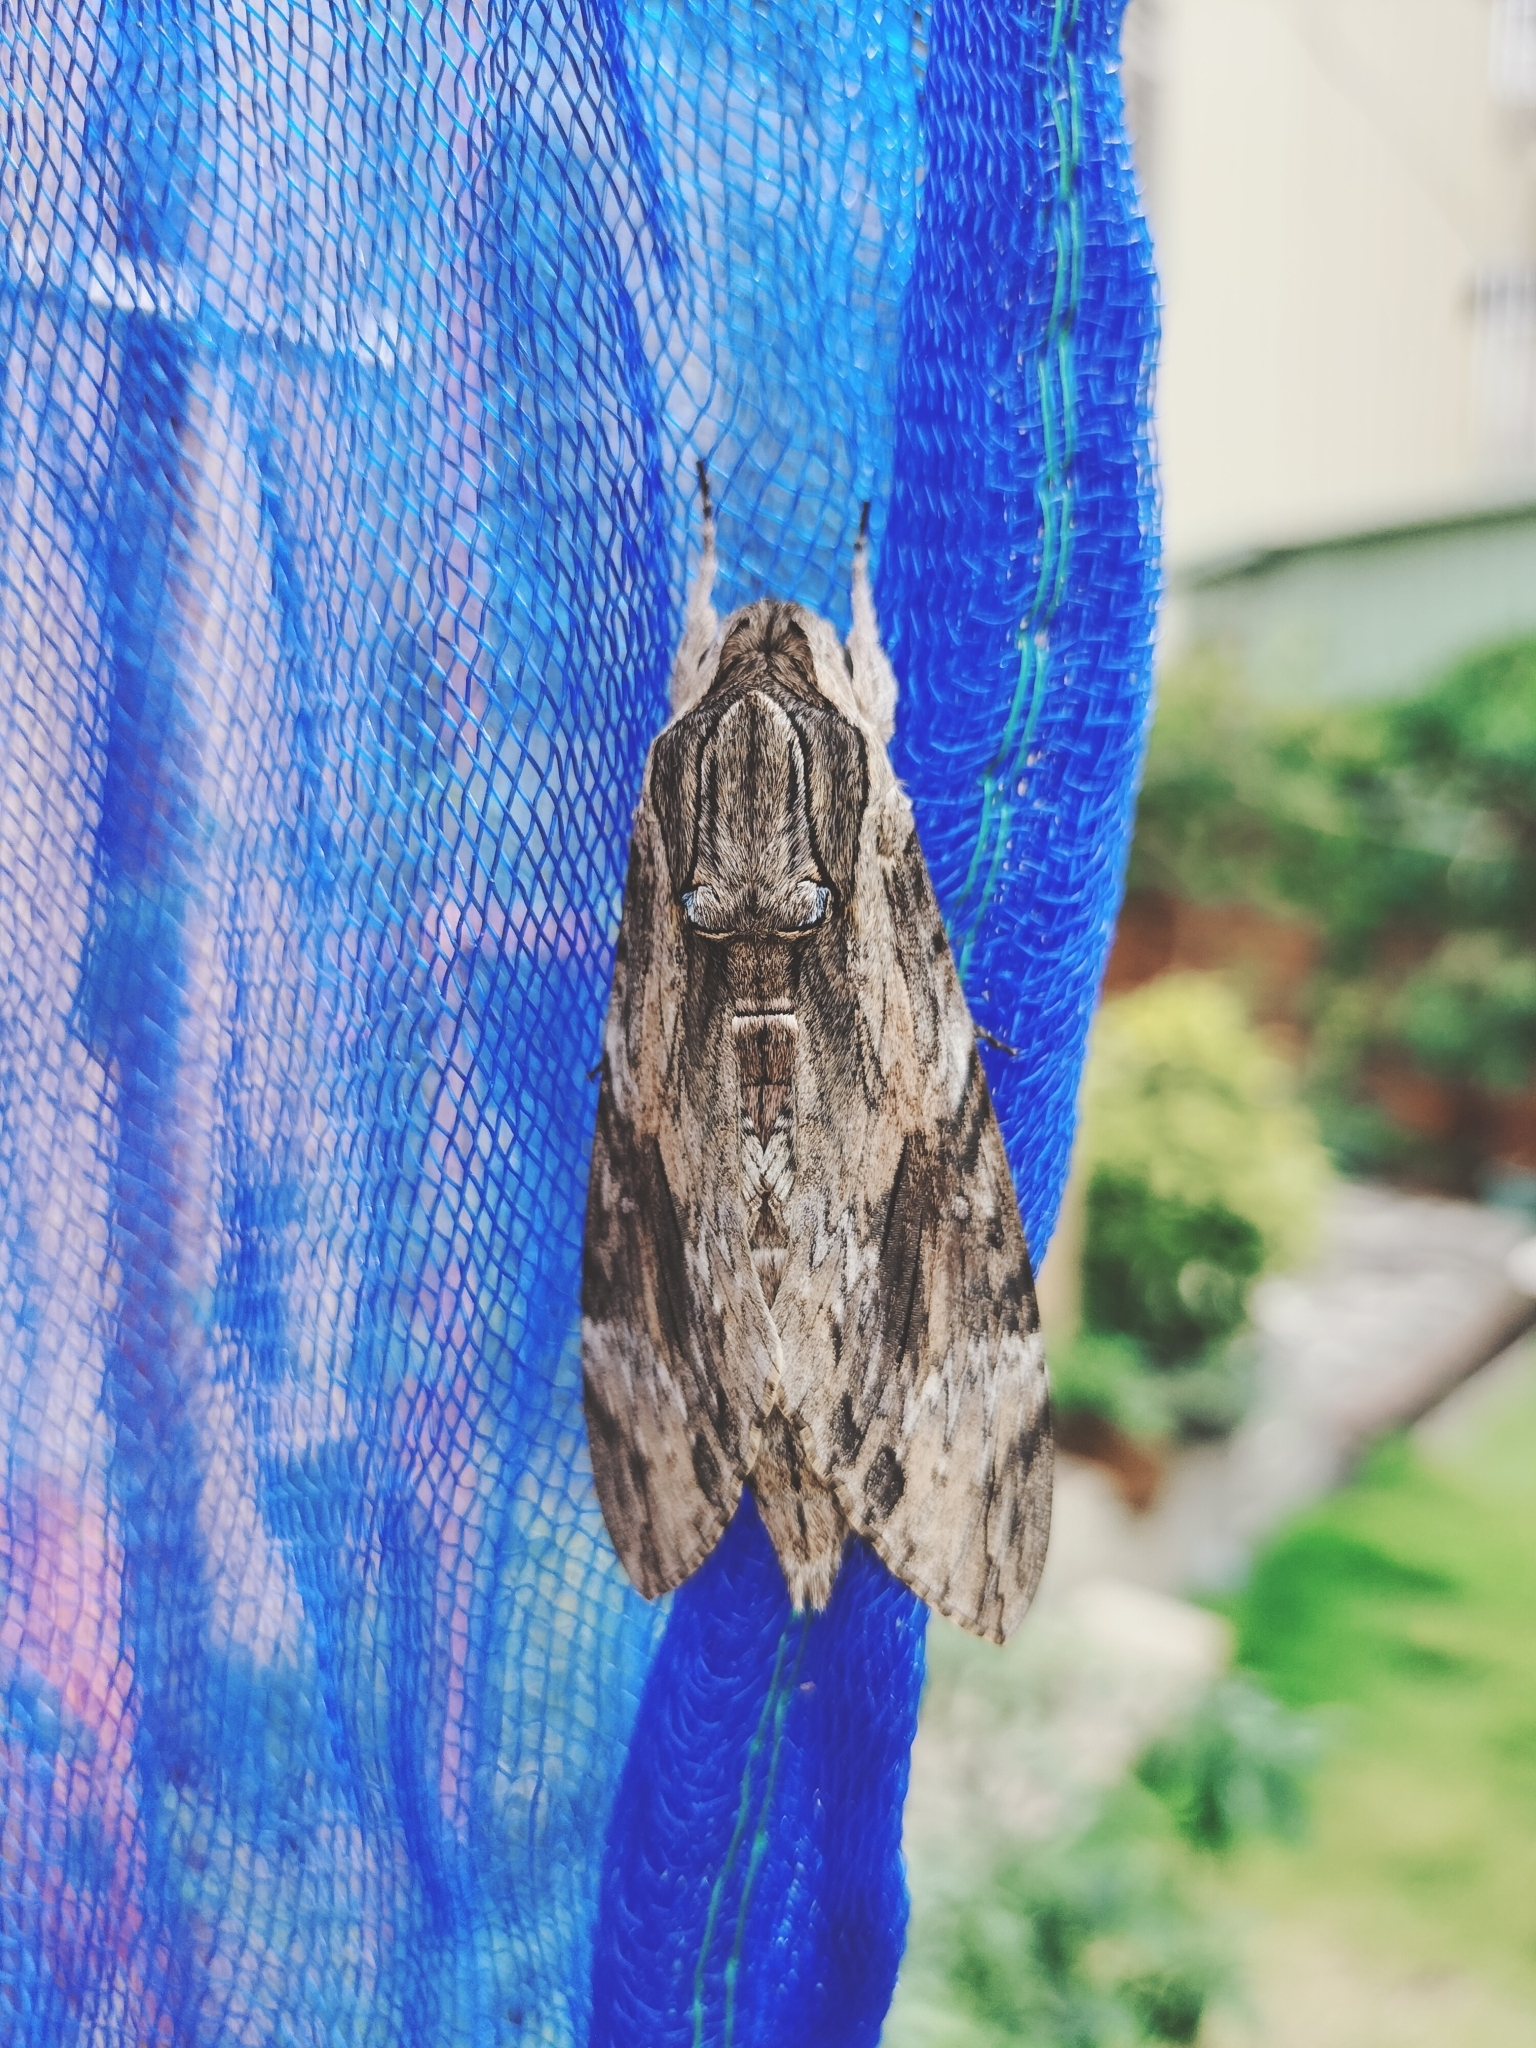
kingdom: Animalia
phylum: Arthropoda
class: Insecta
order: Lepidoptera
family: Sphingidae
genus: Agrius
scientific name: Agrius convolvuli
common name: Convolvulus hawkmoth
